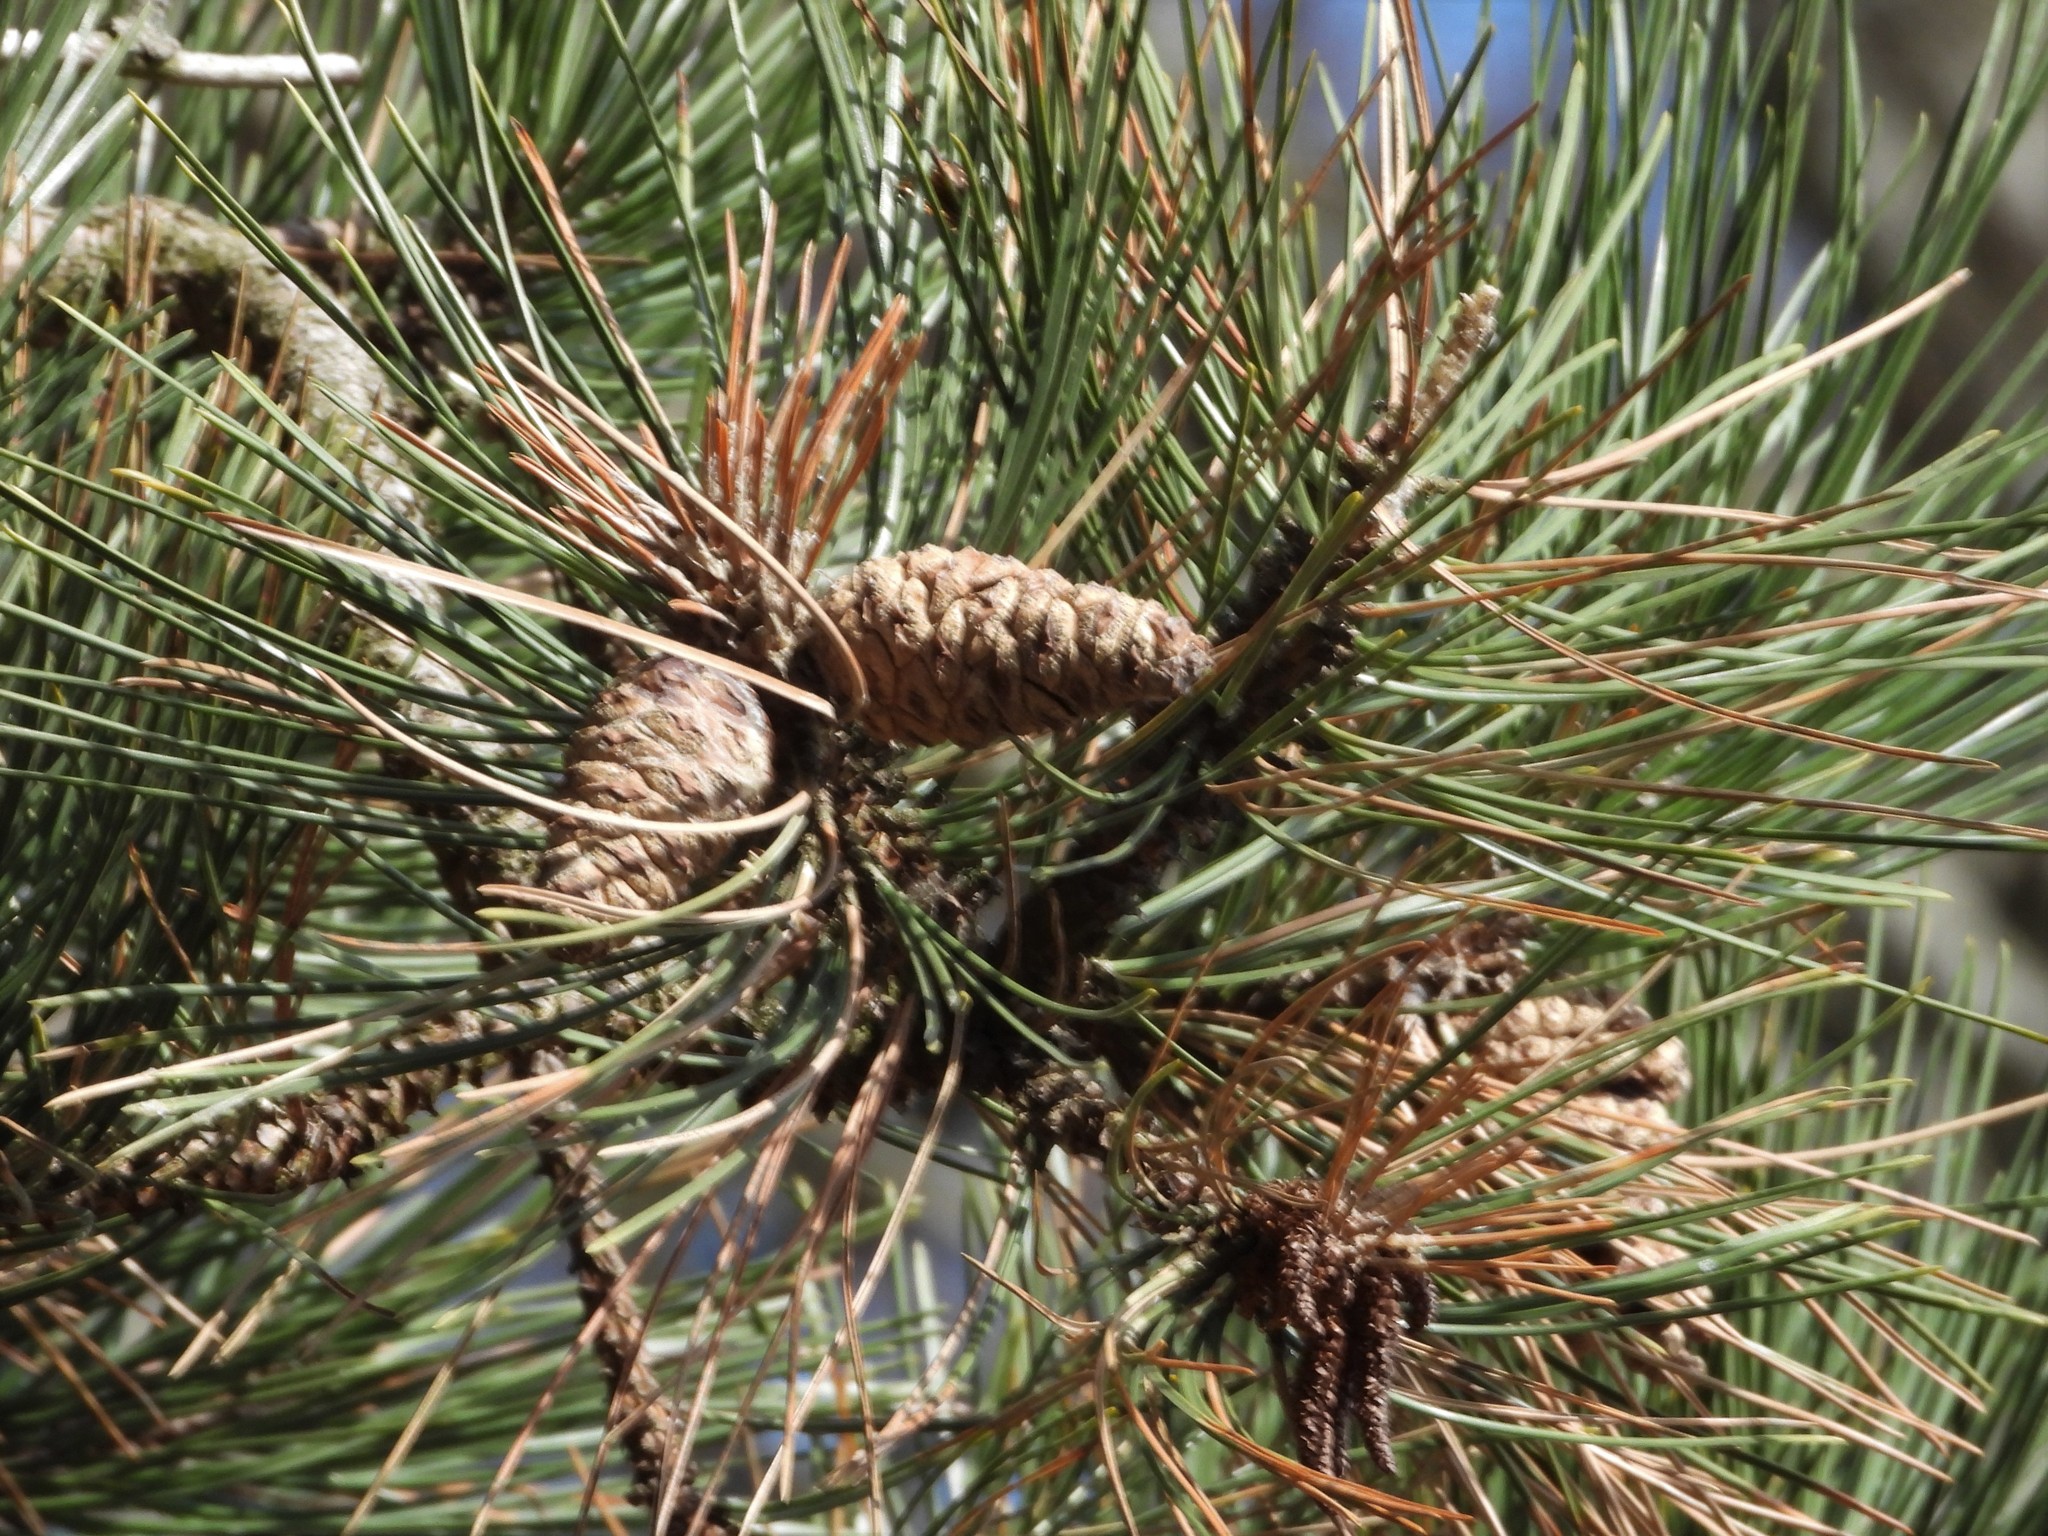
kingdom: Plantae
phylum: Tracheophyta
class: Pinopsida
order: Pinales
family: Pinaceae
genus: Pinus
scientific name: Pinus sylvestris
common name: Scots pine
